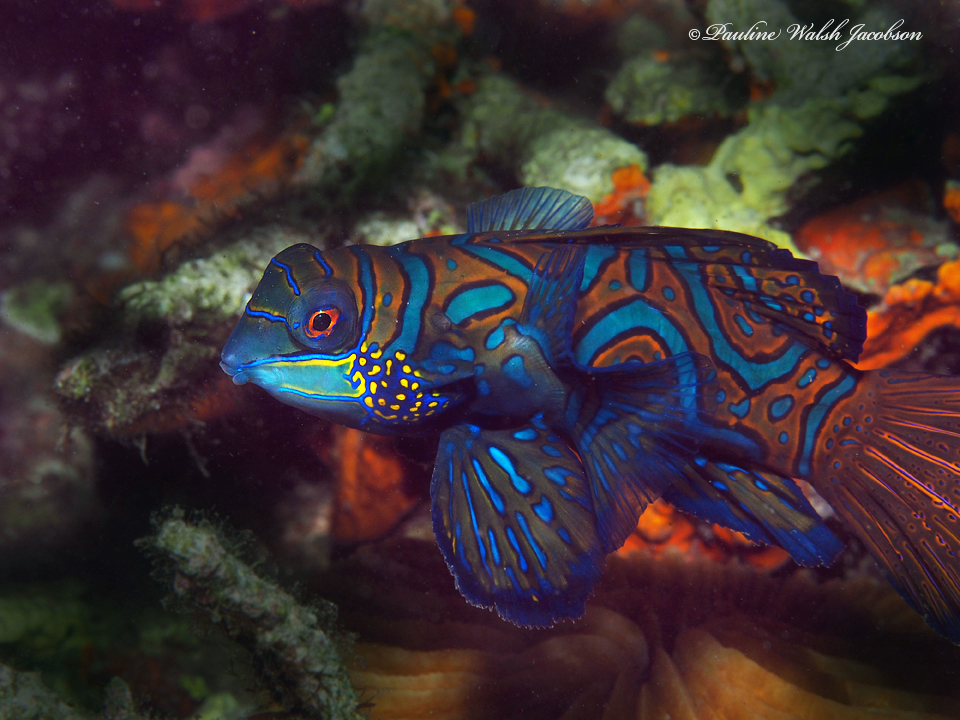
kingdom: Animalia
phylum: Chordata
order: Perciformes
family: Callionymidae
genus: Synchiropus
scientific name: Synchiropus splendidus
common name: Mandarinfish
